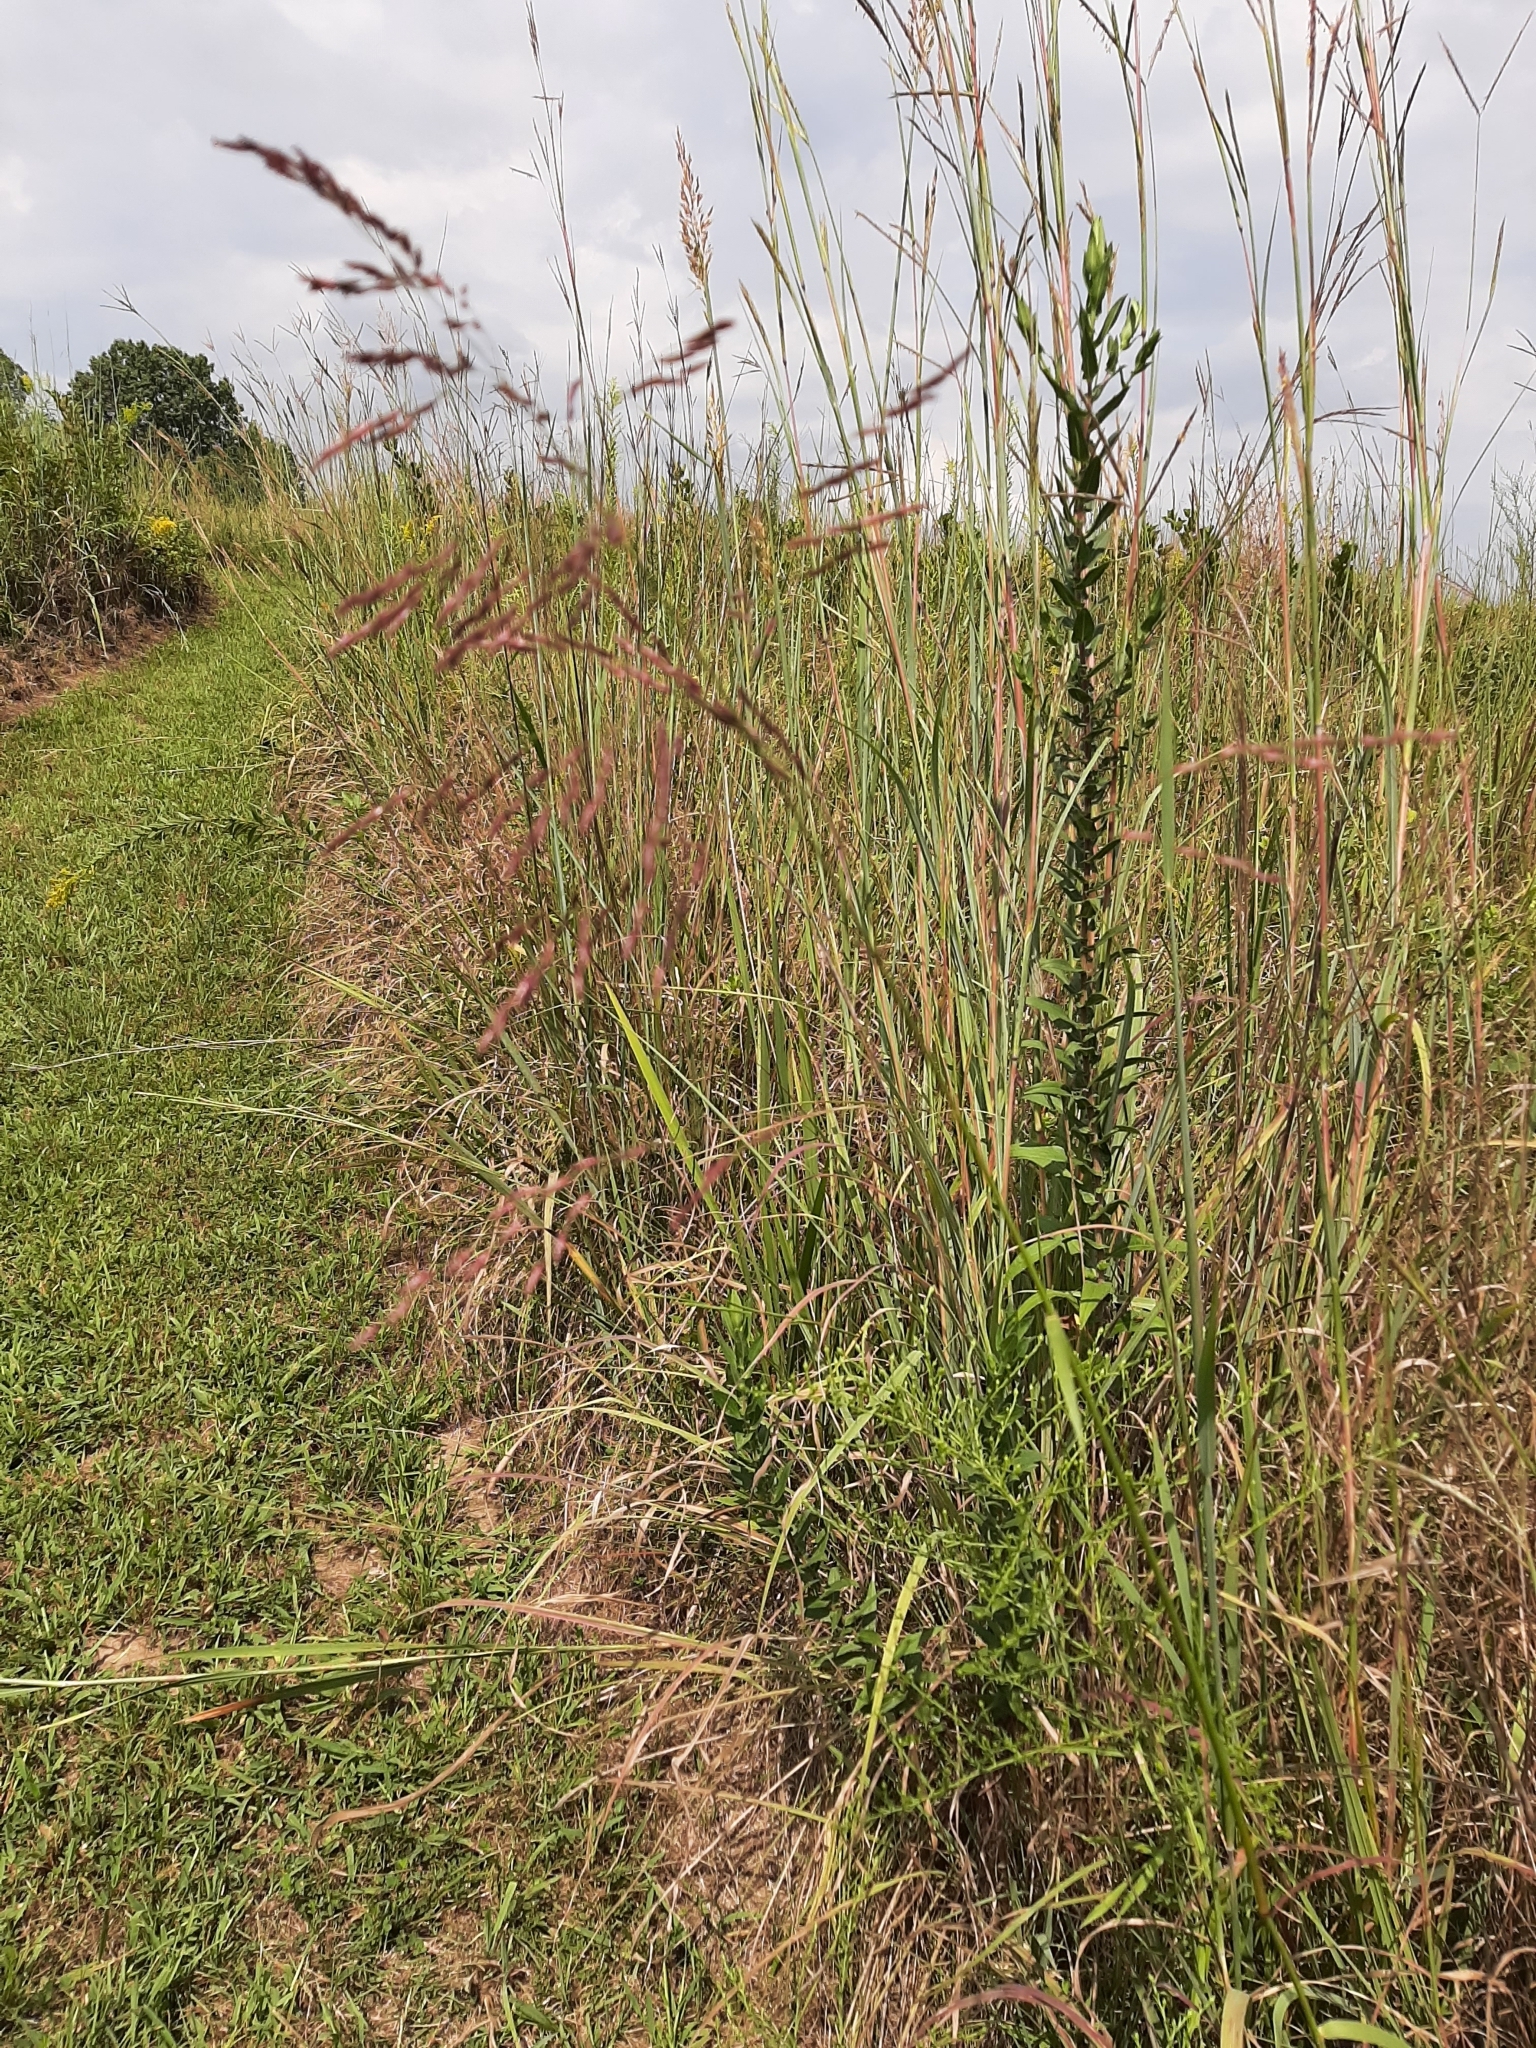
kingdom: Plantae
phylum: Tracheophyta
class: Liliopsida
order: Poales
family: Poaceae
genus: Tridens
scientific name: Tridens flavus
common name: Purpletop
